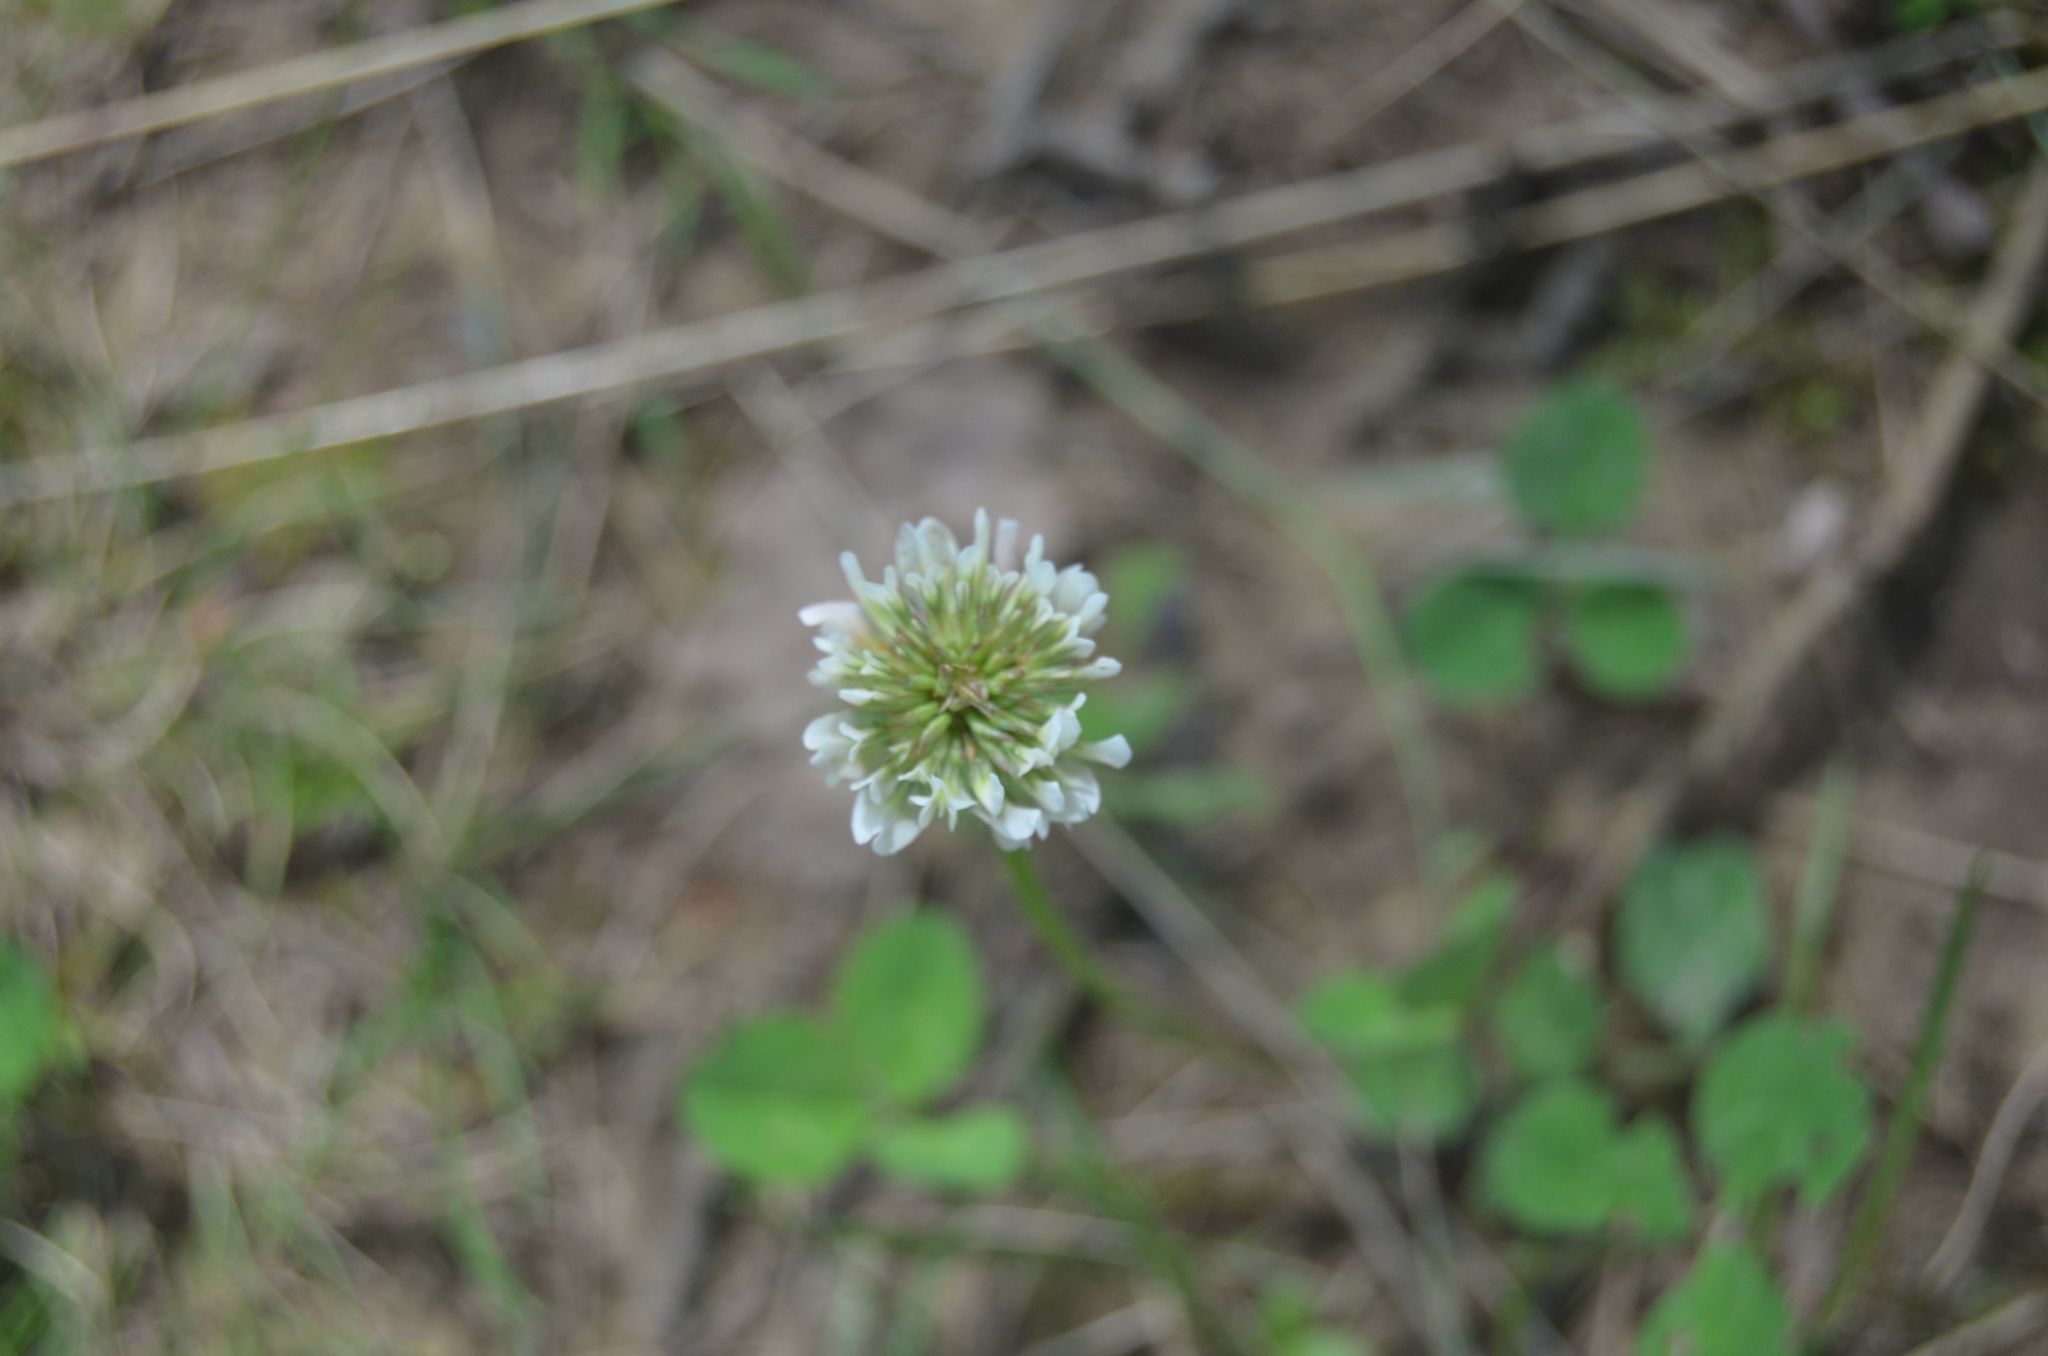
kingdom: Plantae
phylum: Tracheophyta
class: Magnoliopsida
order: Fabales
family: Fabaceae
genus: Trifolium
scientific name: Trifolium repens
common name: White clover
